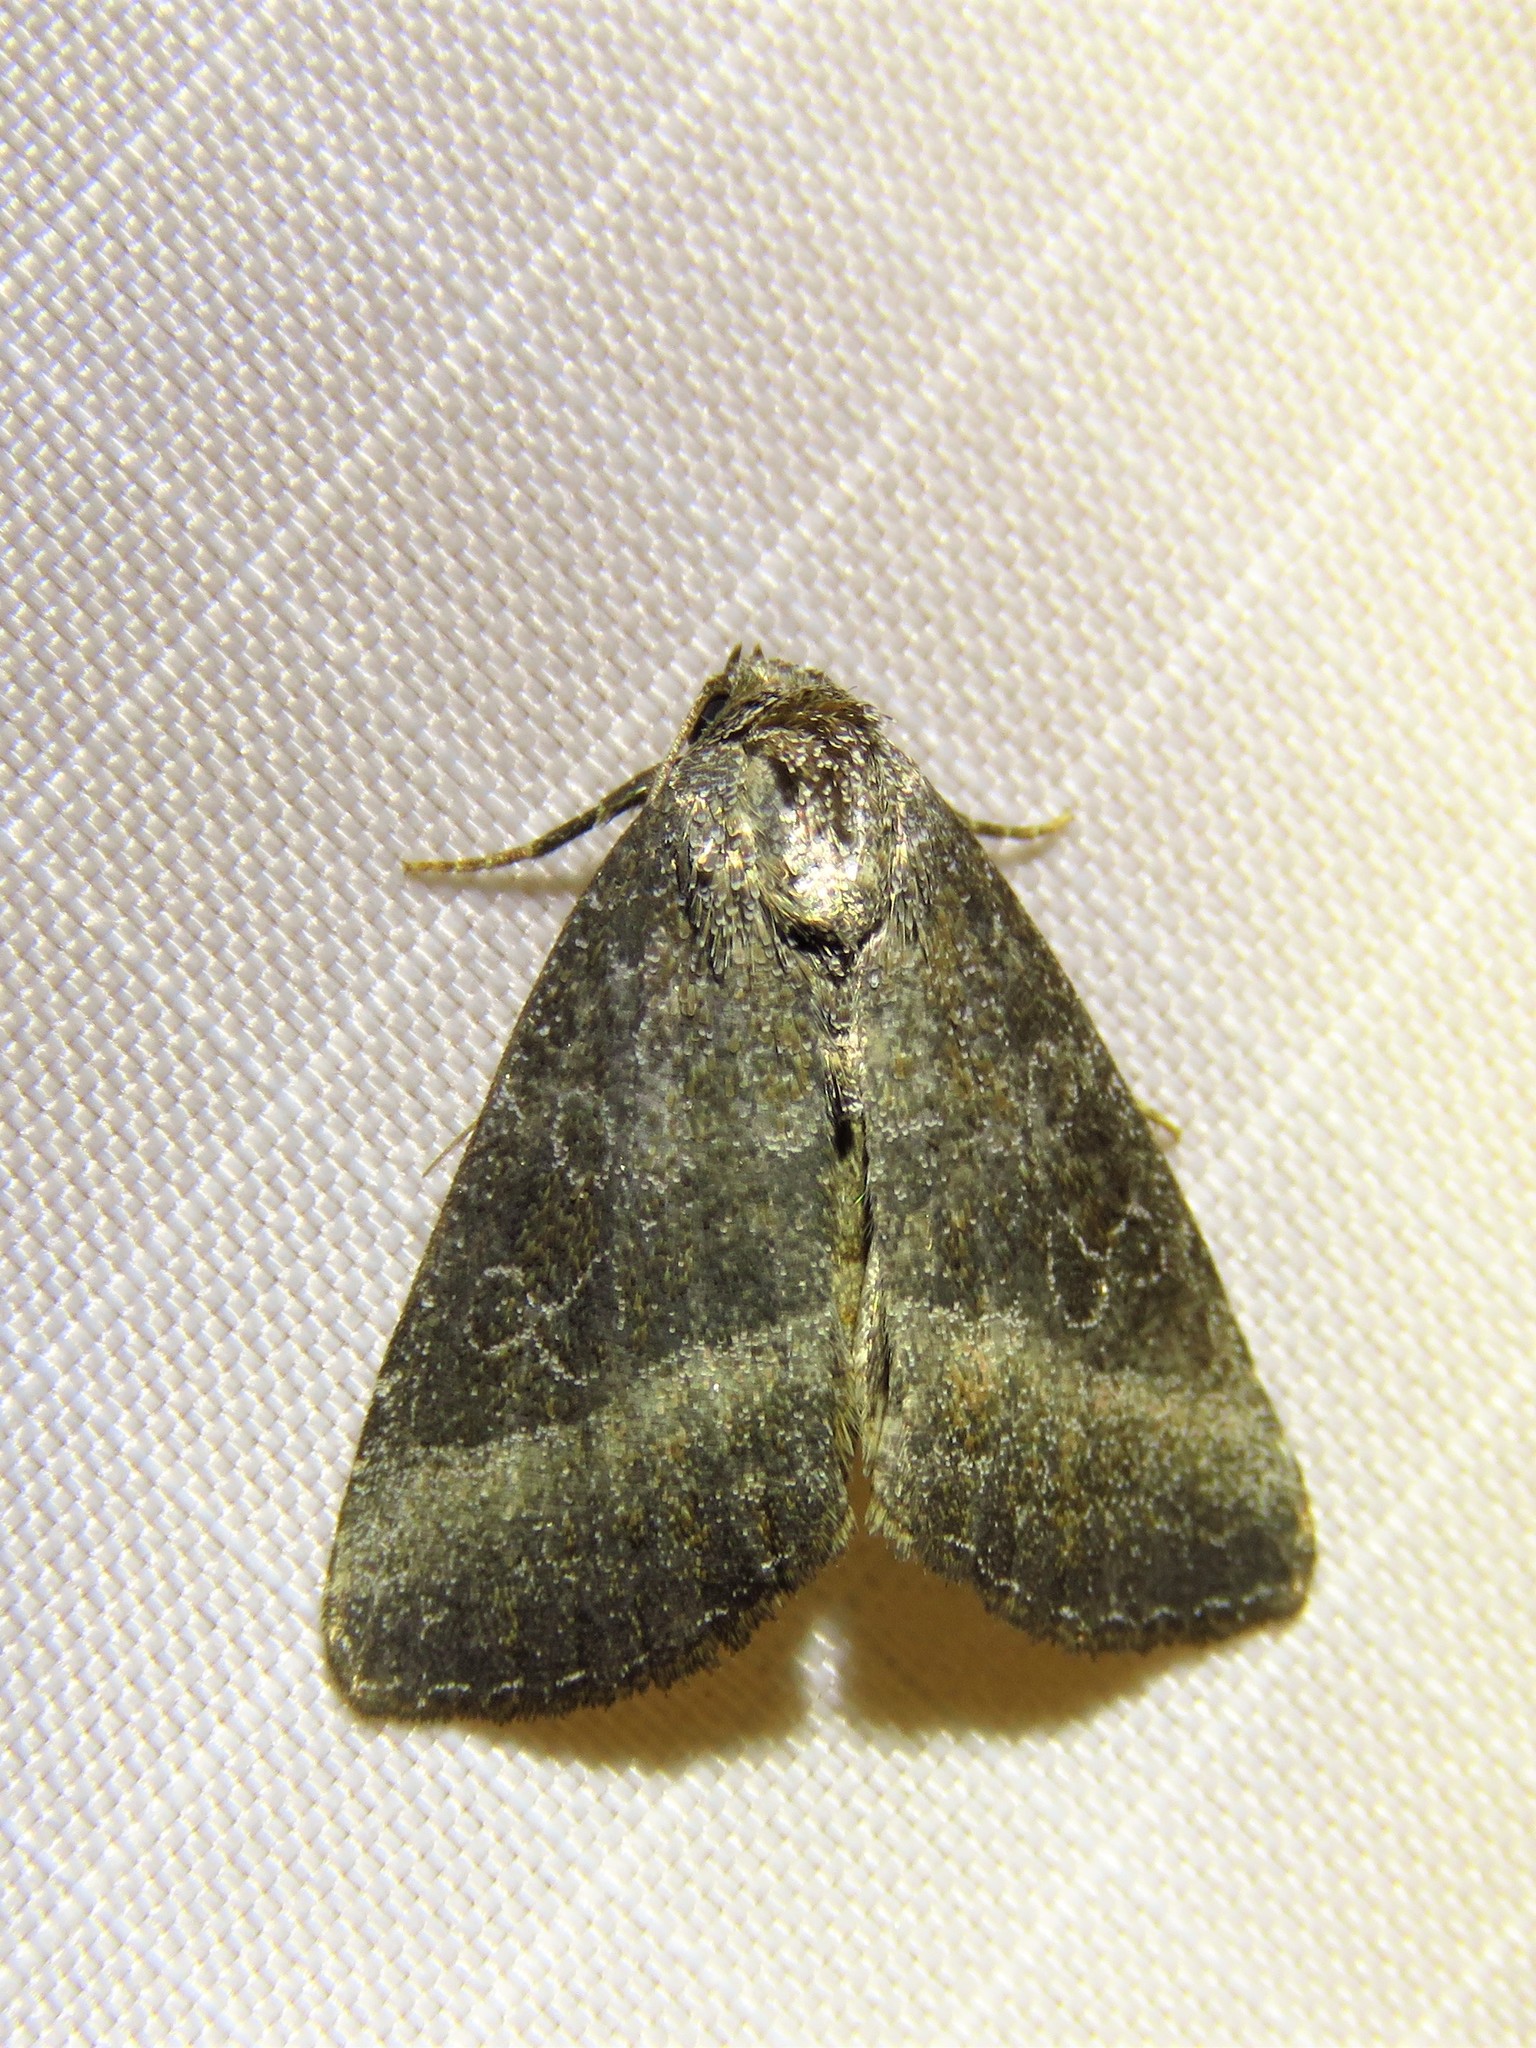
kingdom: Animalia
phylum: Arthropoda
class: Insecta
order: Lepidoptera
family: Noctuidae
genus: Ogdoconta
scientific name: Ogdoconta cinereola
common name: Common pinkband
